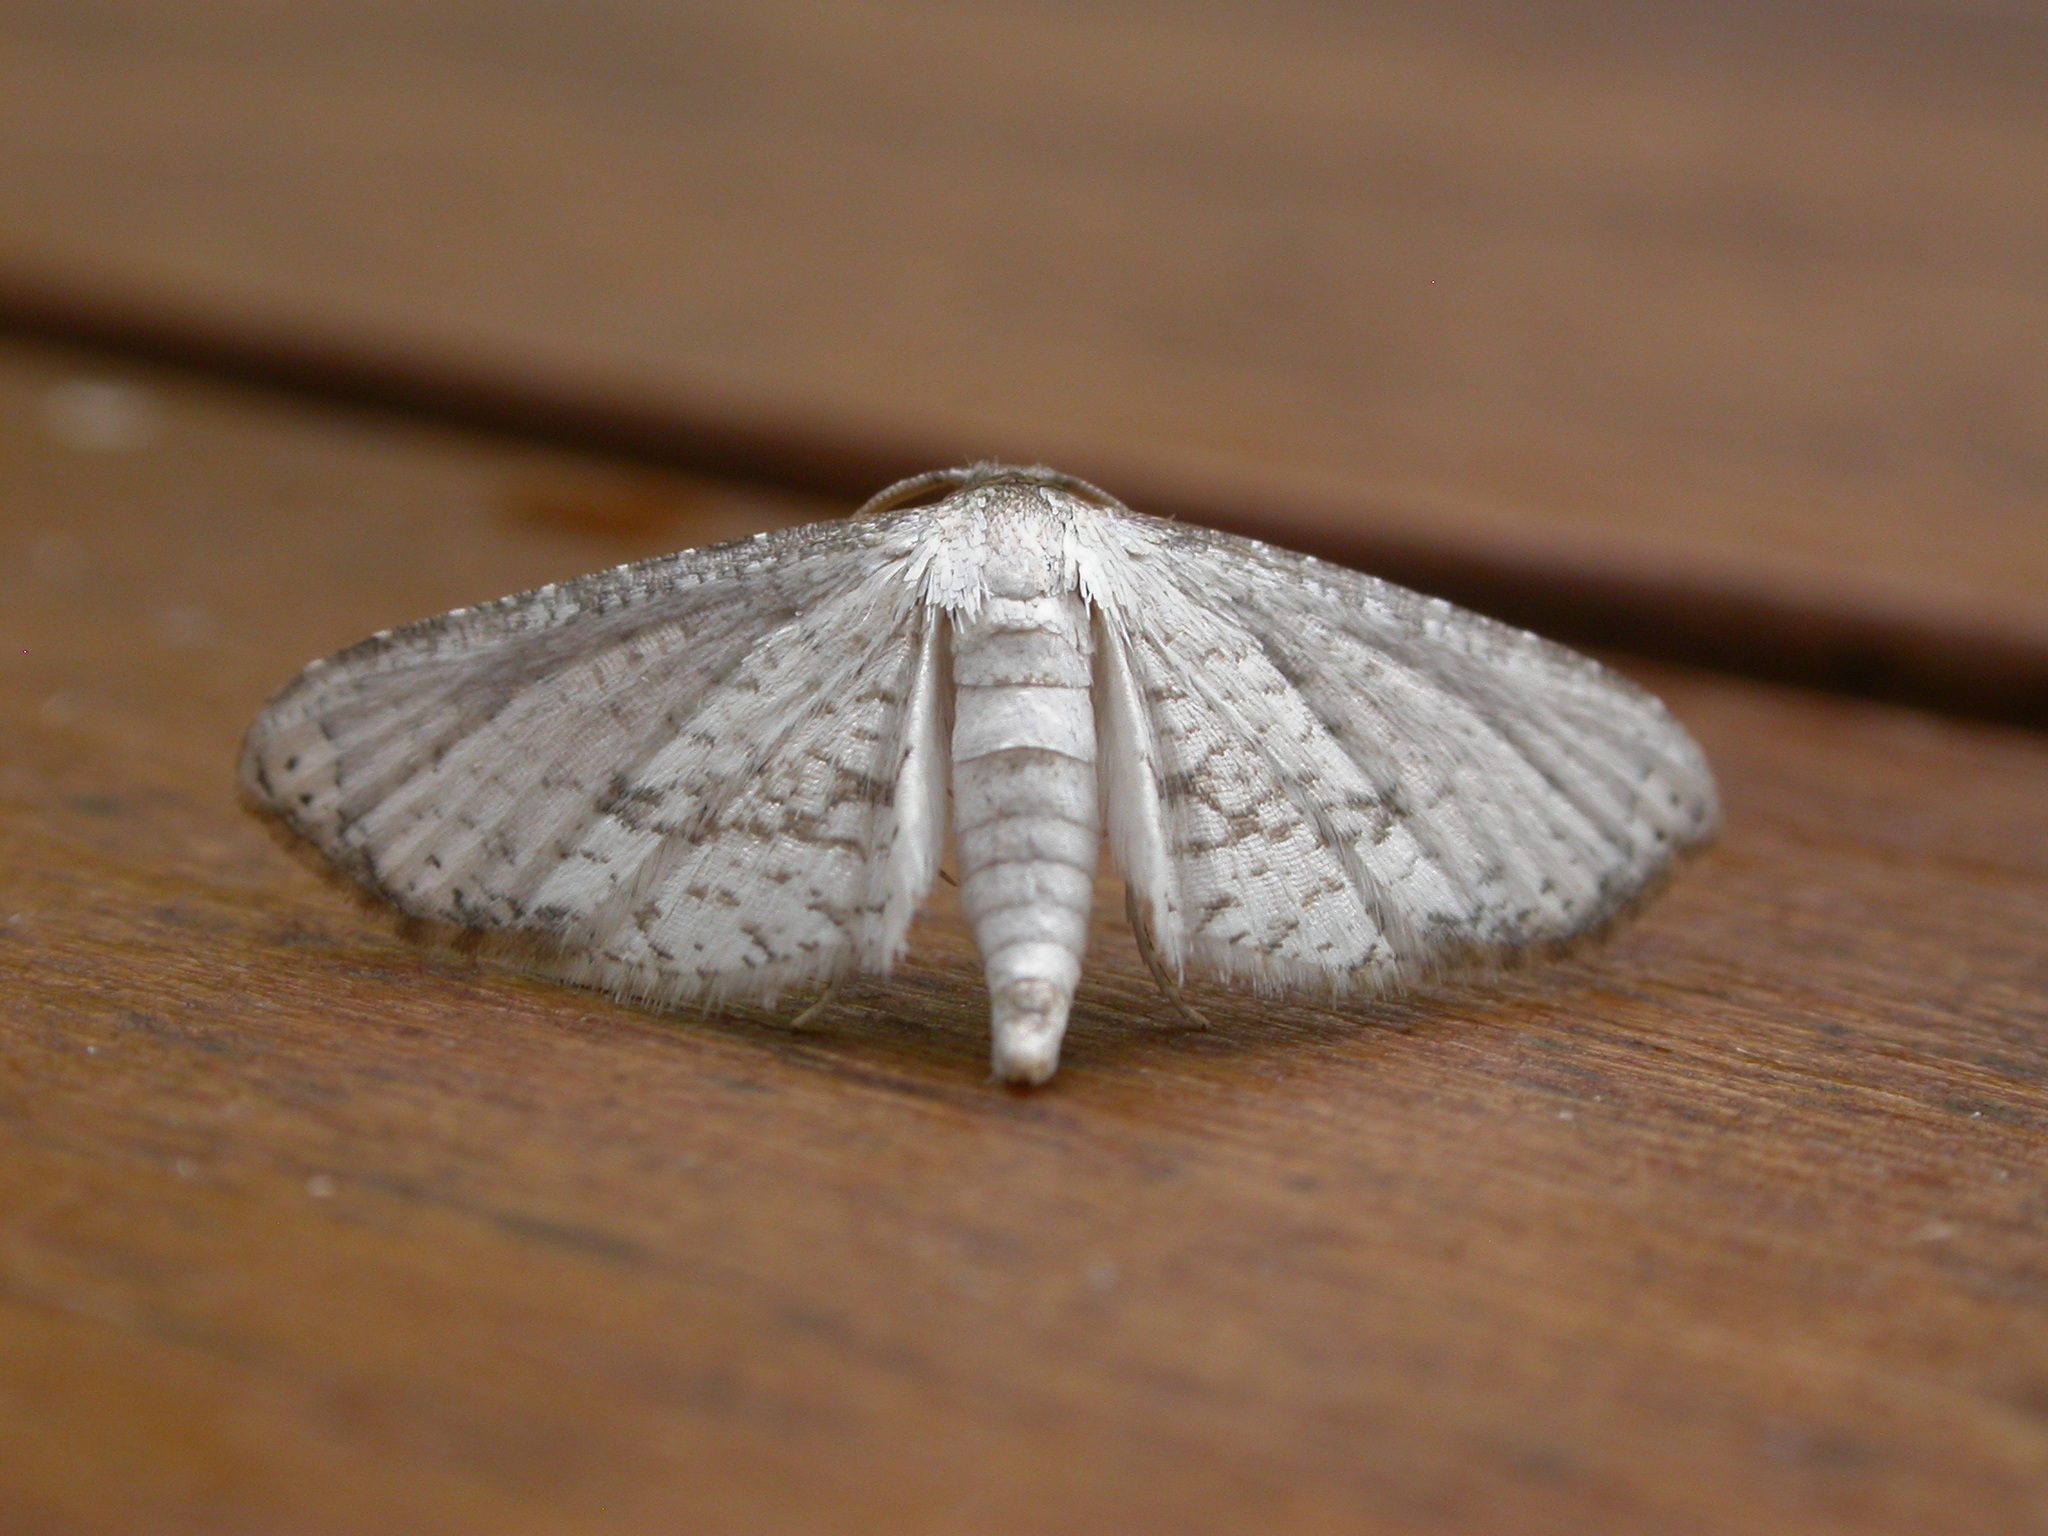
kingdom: Animalia
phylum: Arthropoda
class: Insecta
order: Lepidoptera
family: Thyrididae
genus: Hypolamprus
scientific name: Hypolamprus melilialis
